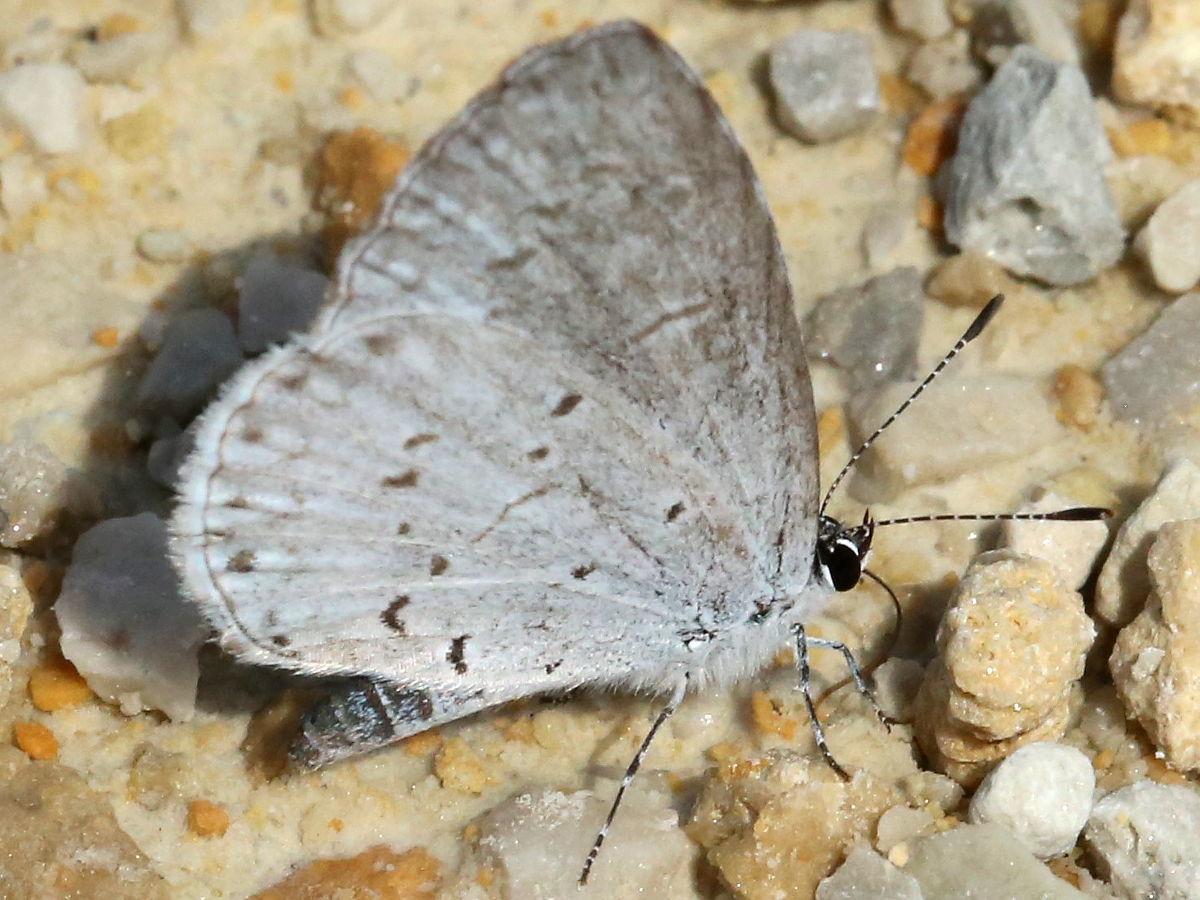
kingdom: Animalia
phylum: Arthropoda
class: Insecta
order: Lepidoptera
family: Lycaenidae
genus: Cyaniris
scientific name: Cyaniris neglecta
